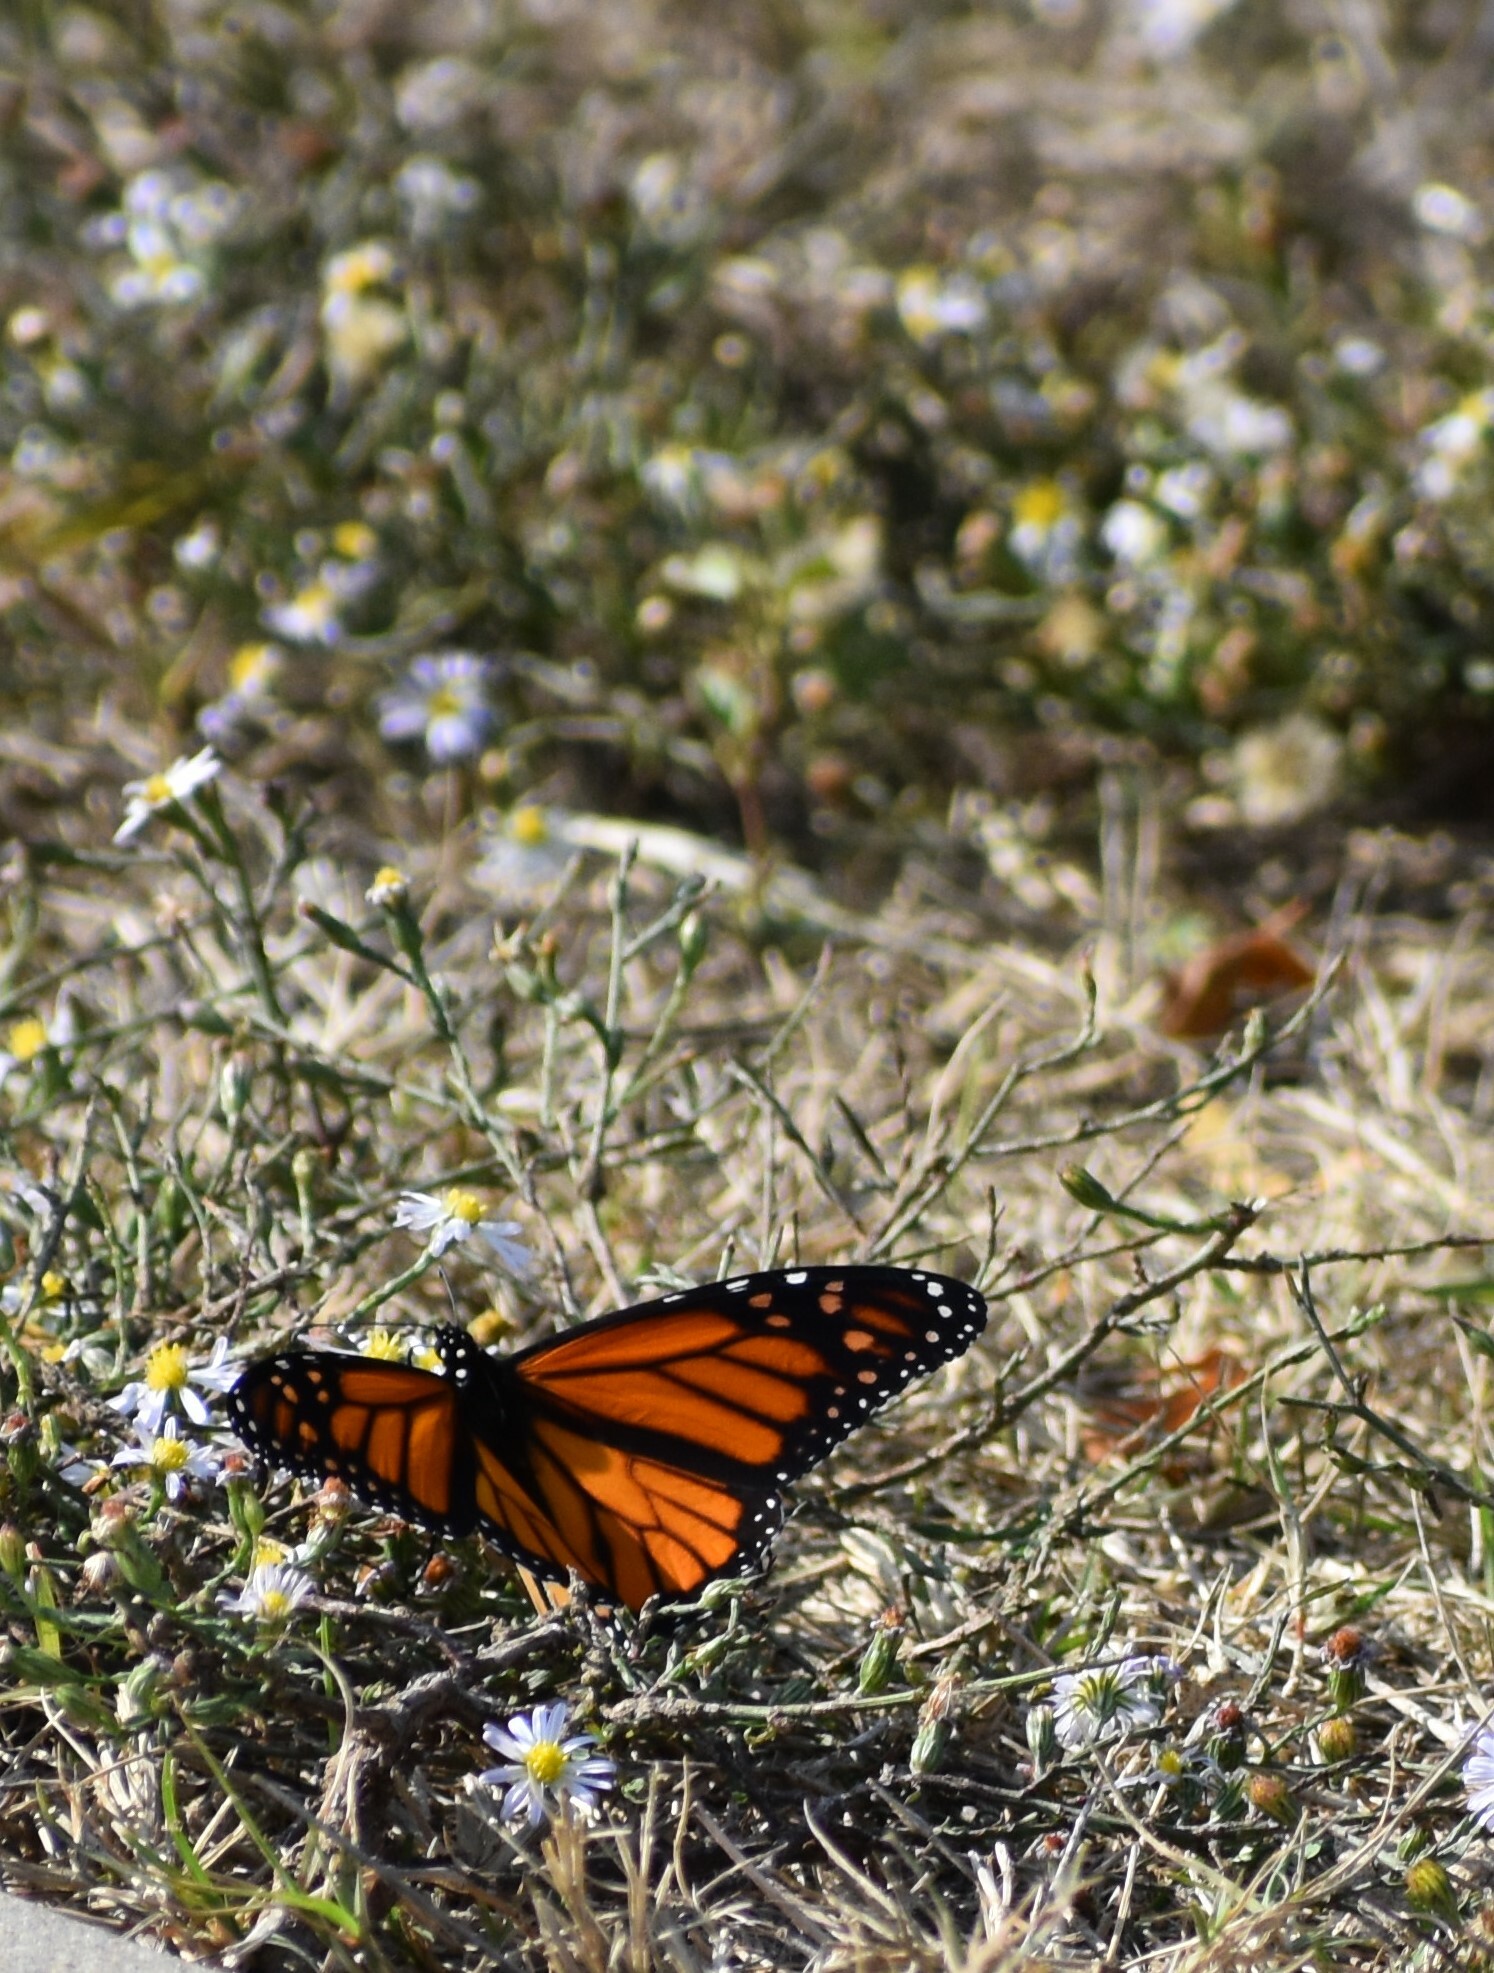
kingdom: Animalia
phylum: Arthropoda
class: Insecta
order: Lepidoptera
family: Nymphalidae
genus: Danaus
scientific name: Danaus plexippus
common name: Monarch
